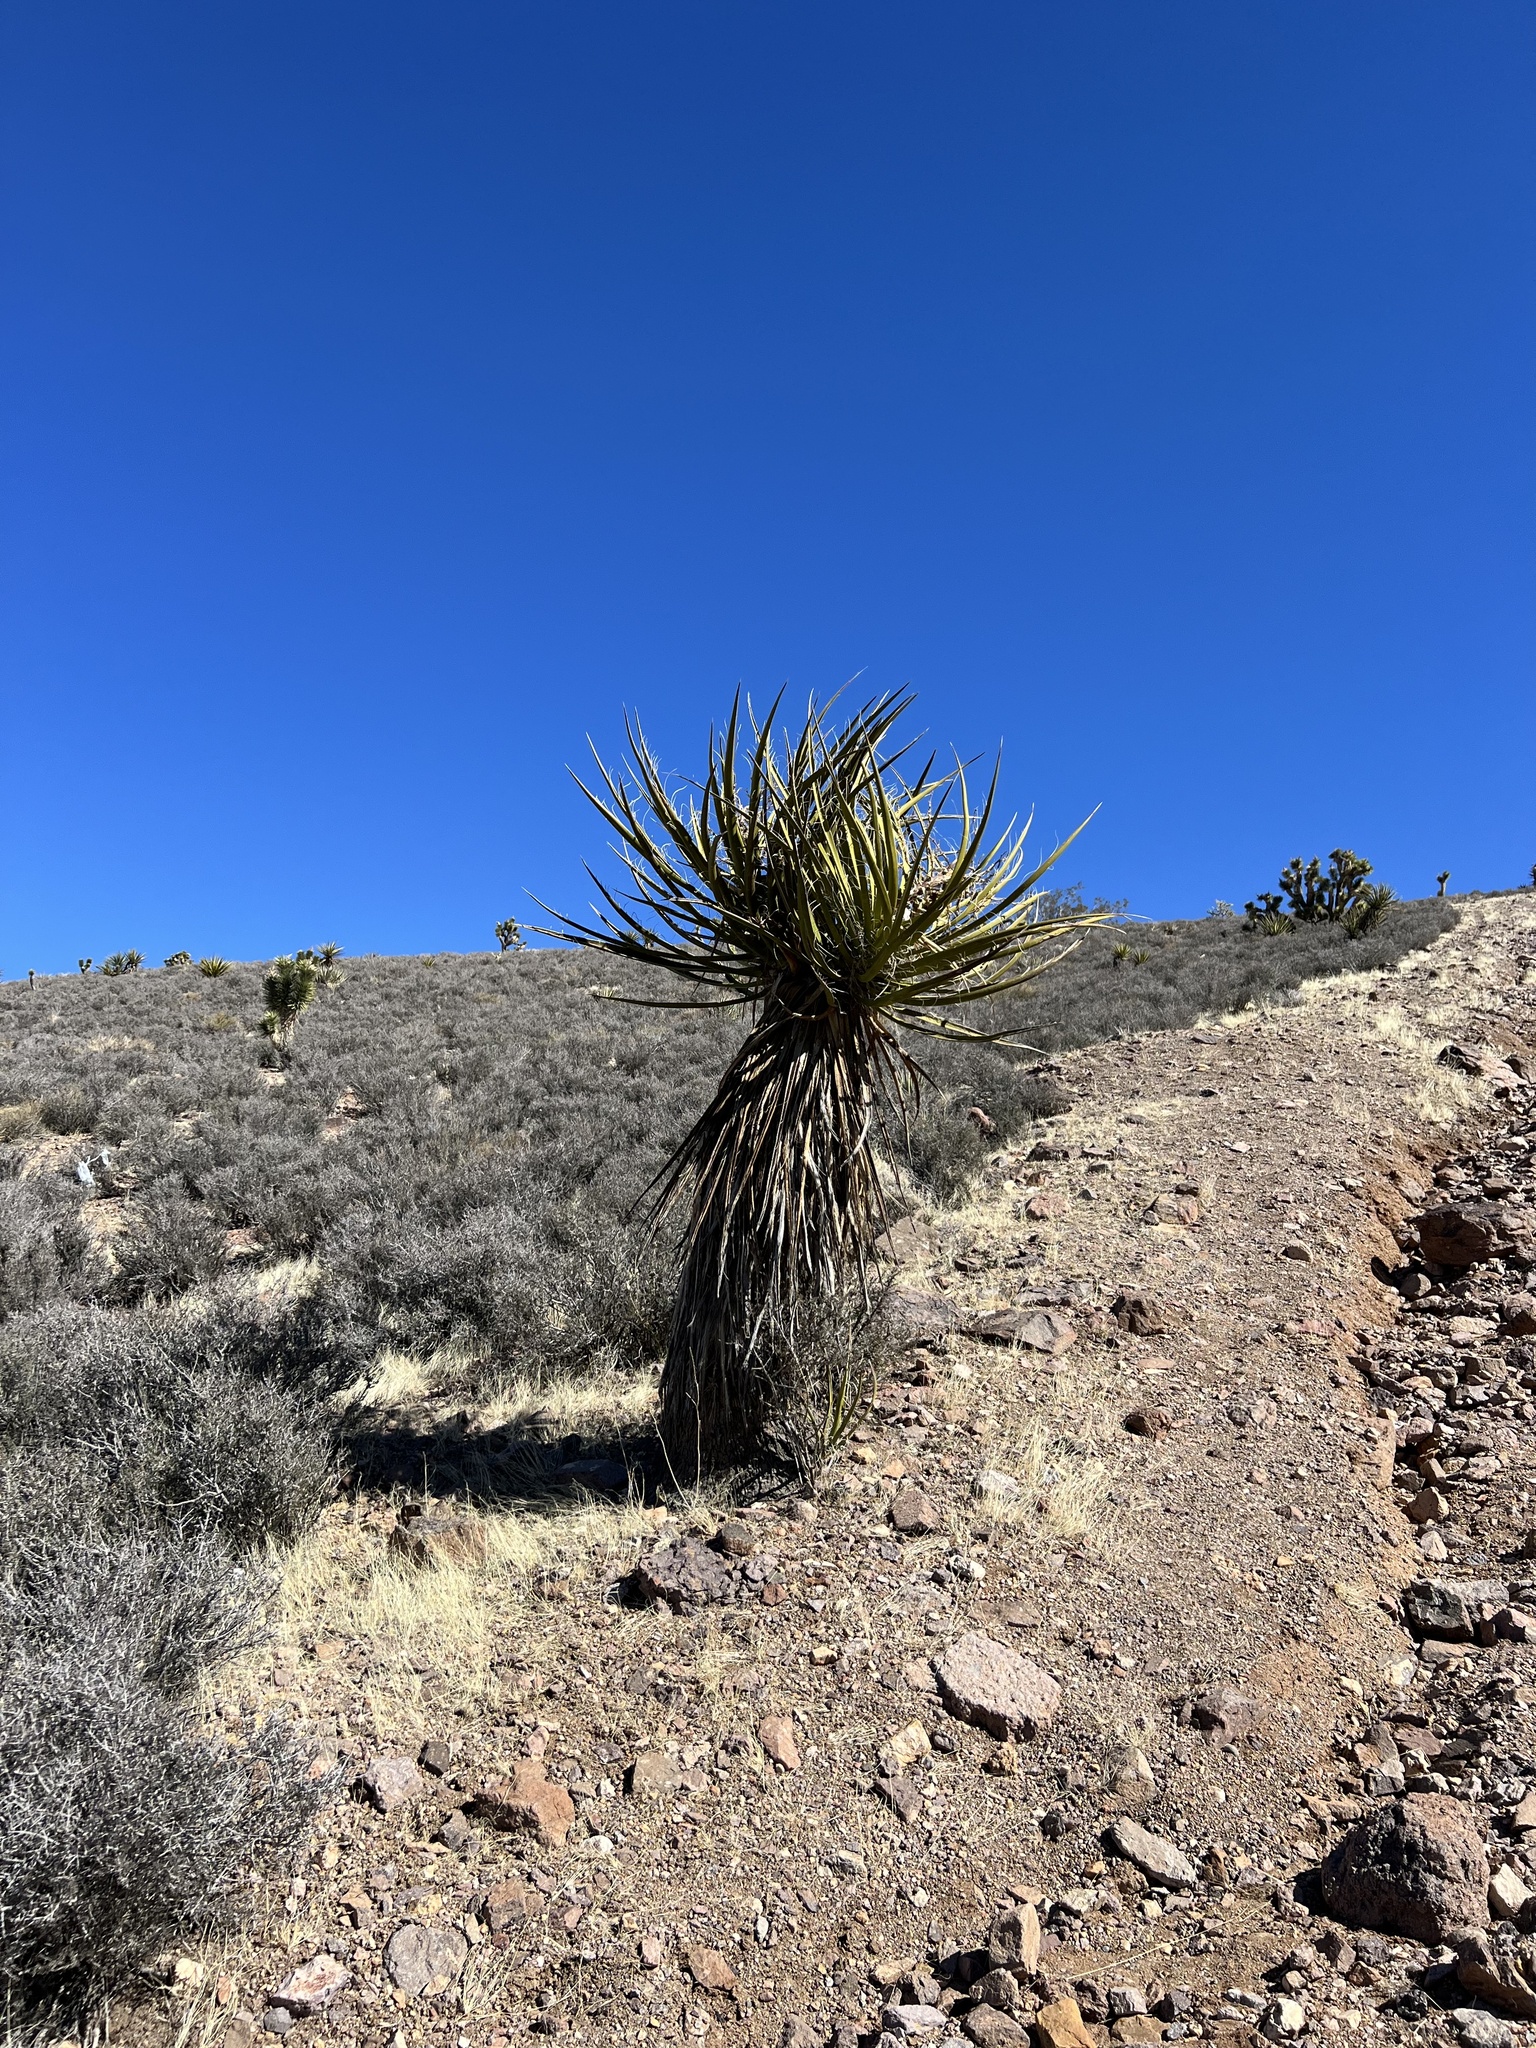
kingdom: Plantae
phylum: Tracheophyta
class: Liliopsida
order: Asparagales
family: Asparagaceae
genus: Yucca
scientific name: Yucca schidigera
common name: Mojave yucca
